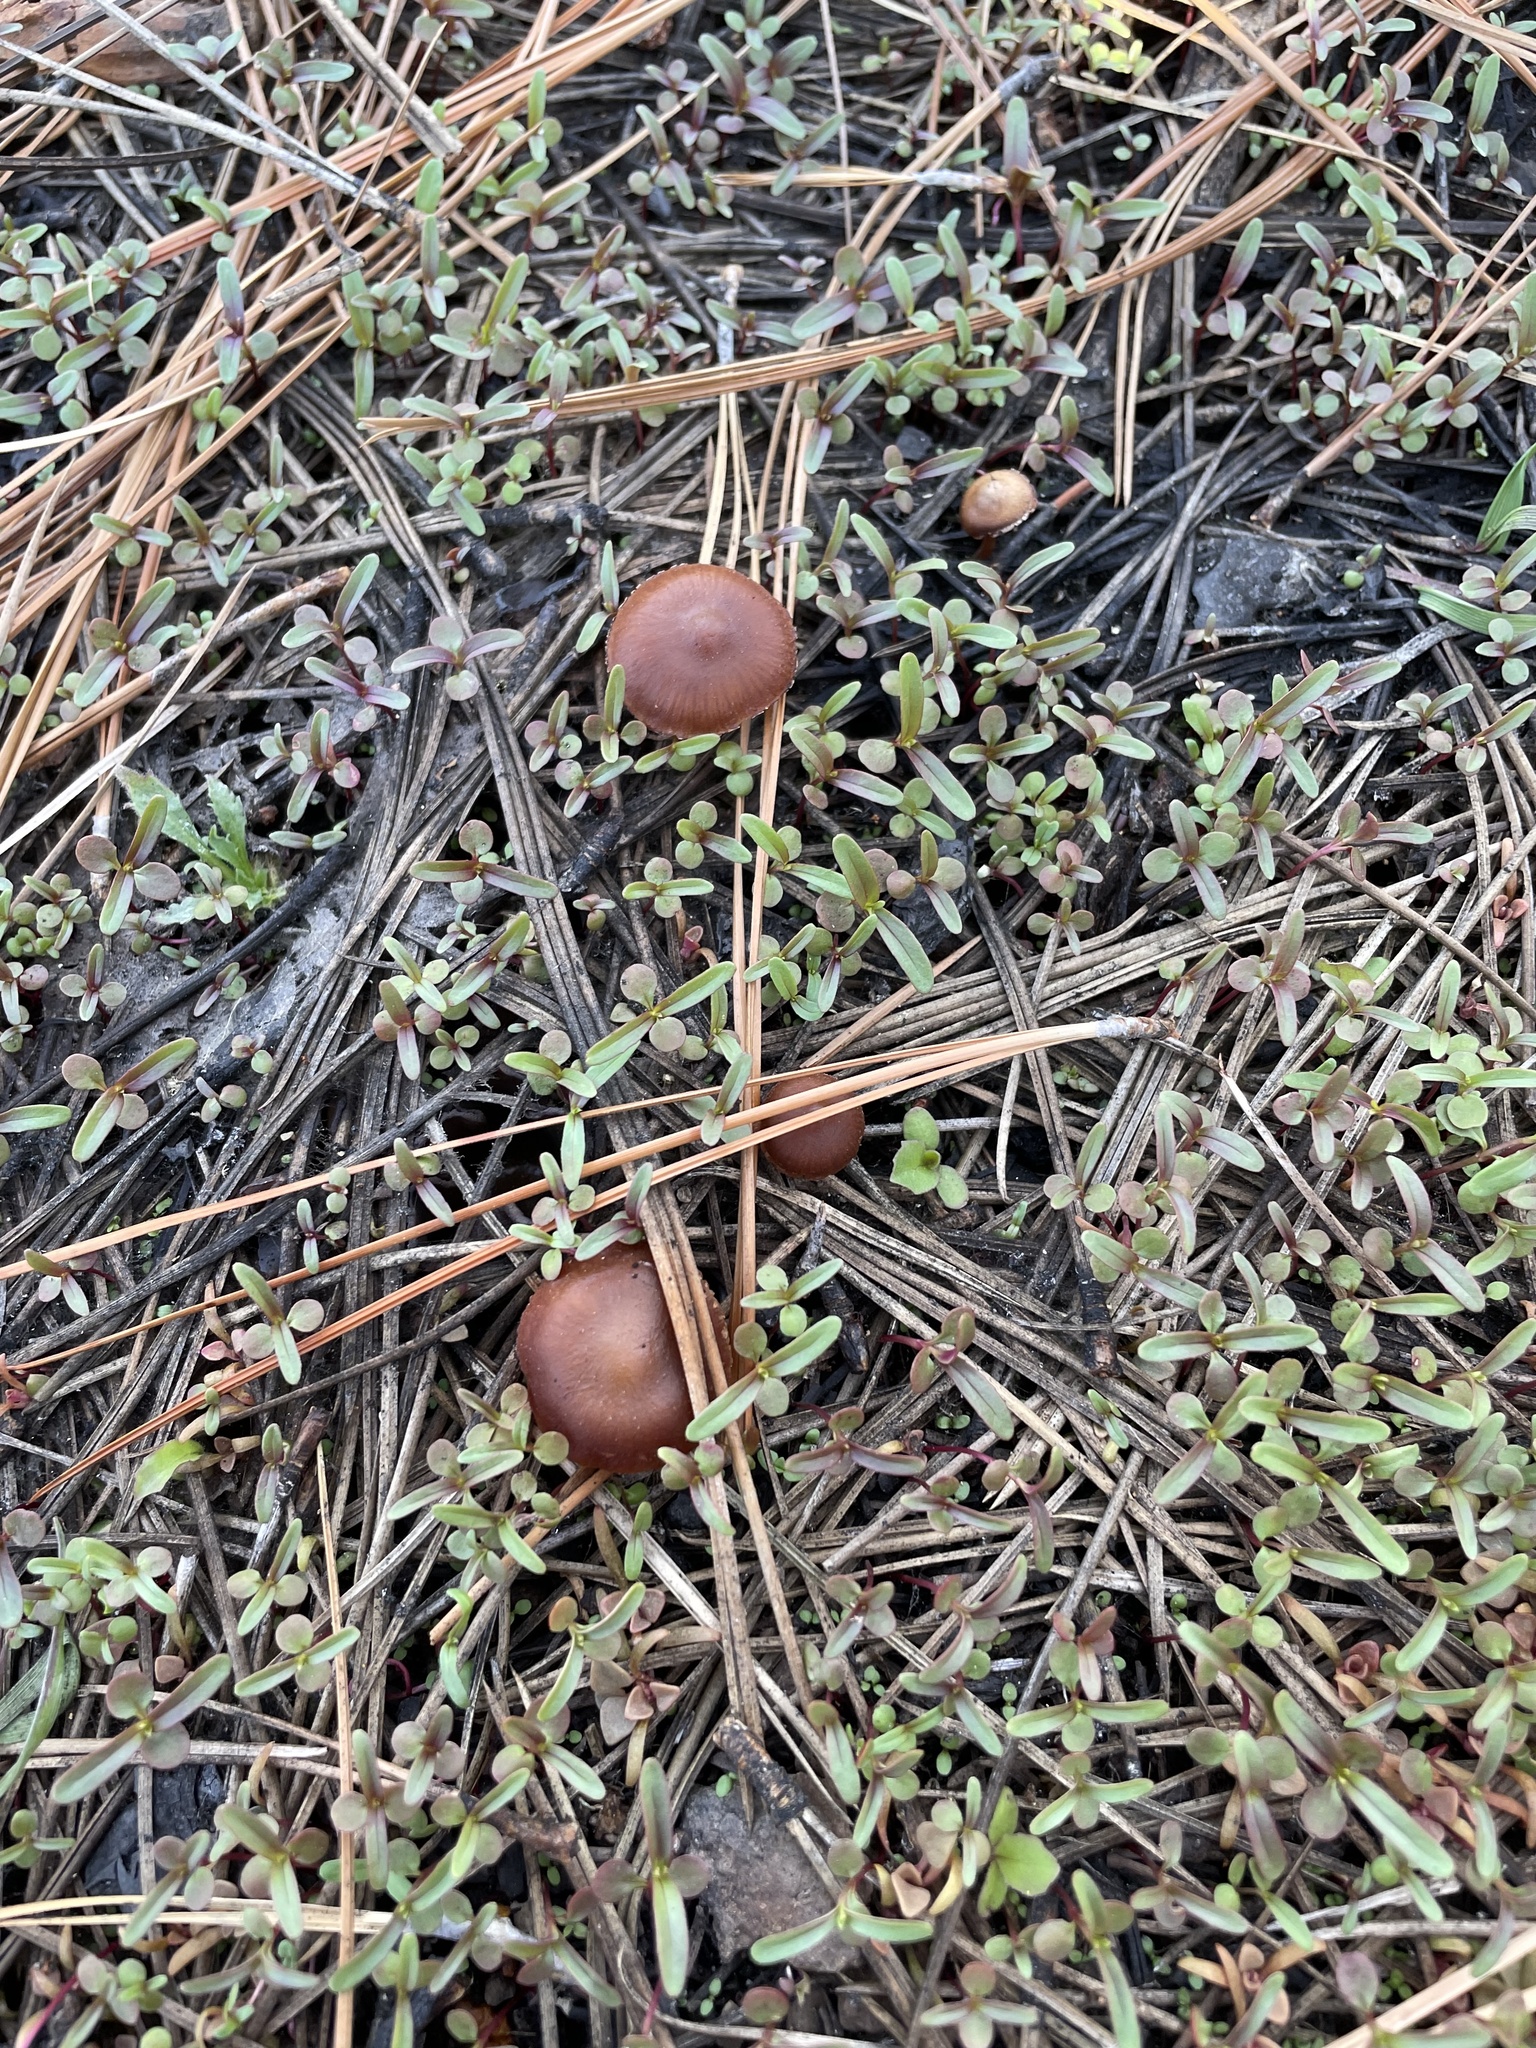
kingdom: Fungi
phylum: Basidiomycota
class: Agaricomycetes
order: Agaricales
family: Crassisporiaceae
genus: Crassisporium
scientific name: Crassisporium funariophilum
